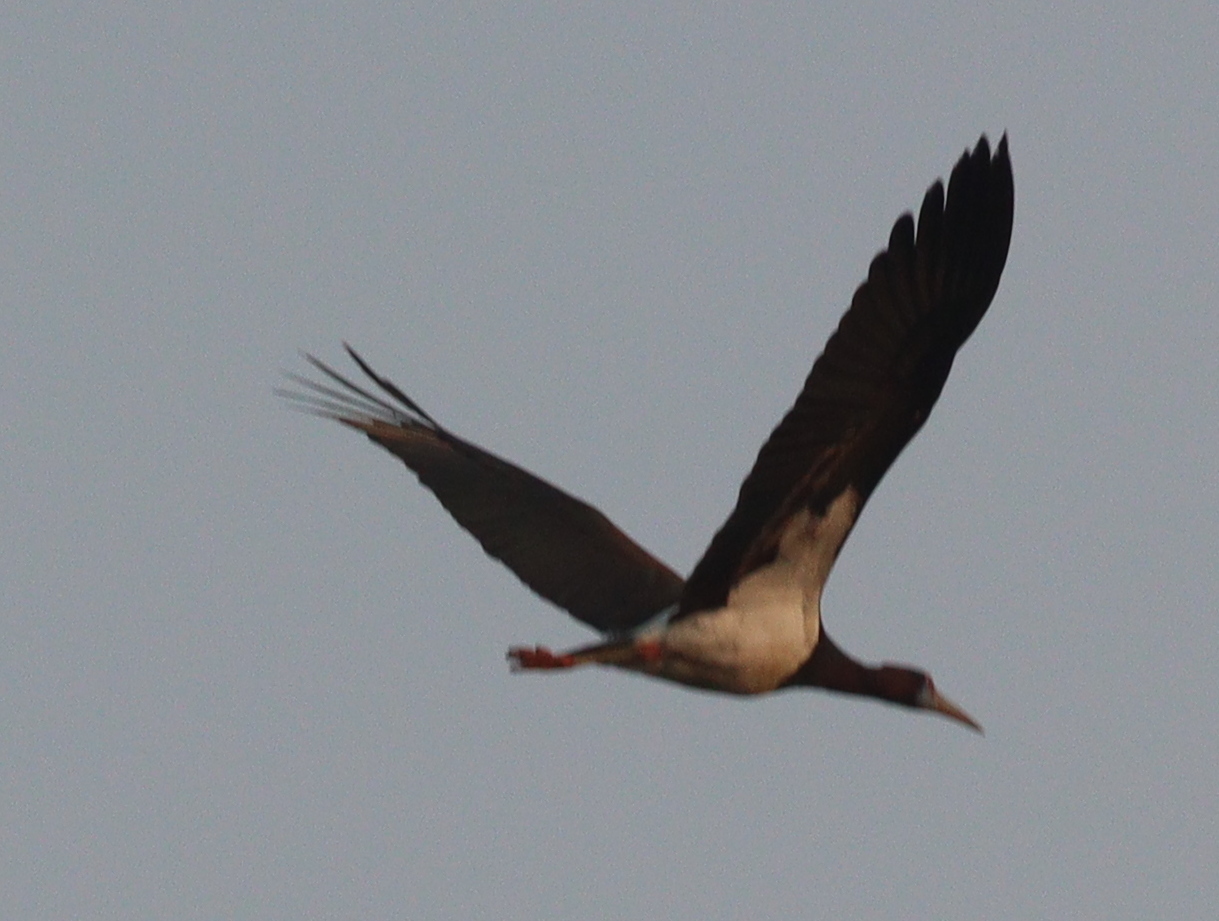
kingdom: Animalia
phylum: Chordata
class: Aves
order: Ciconiiformes
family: Ciconiidae
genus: Ciconia
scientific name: Ciconia abdimii
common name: Abdim's stork
